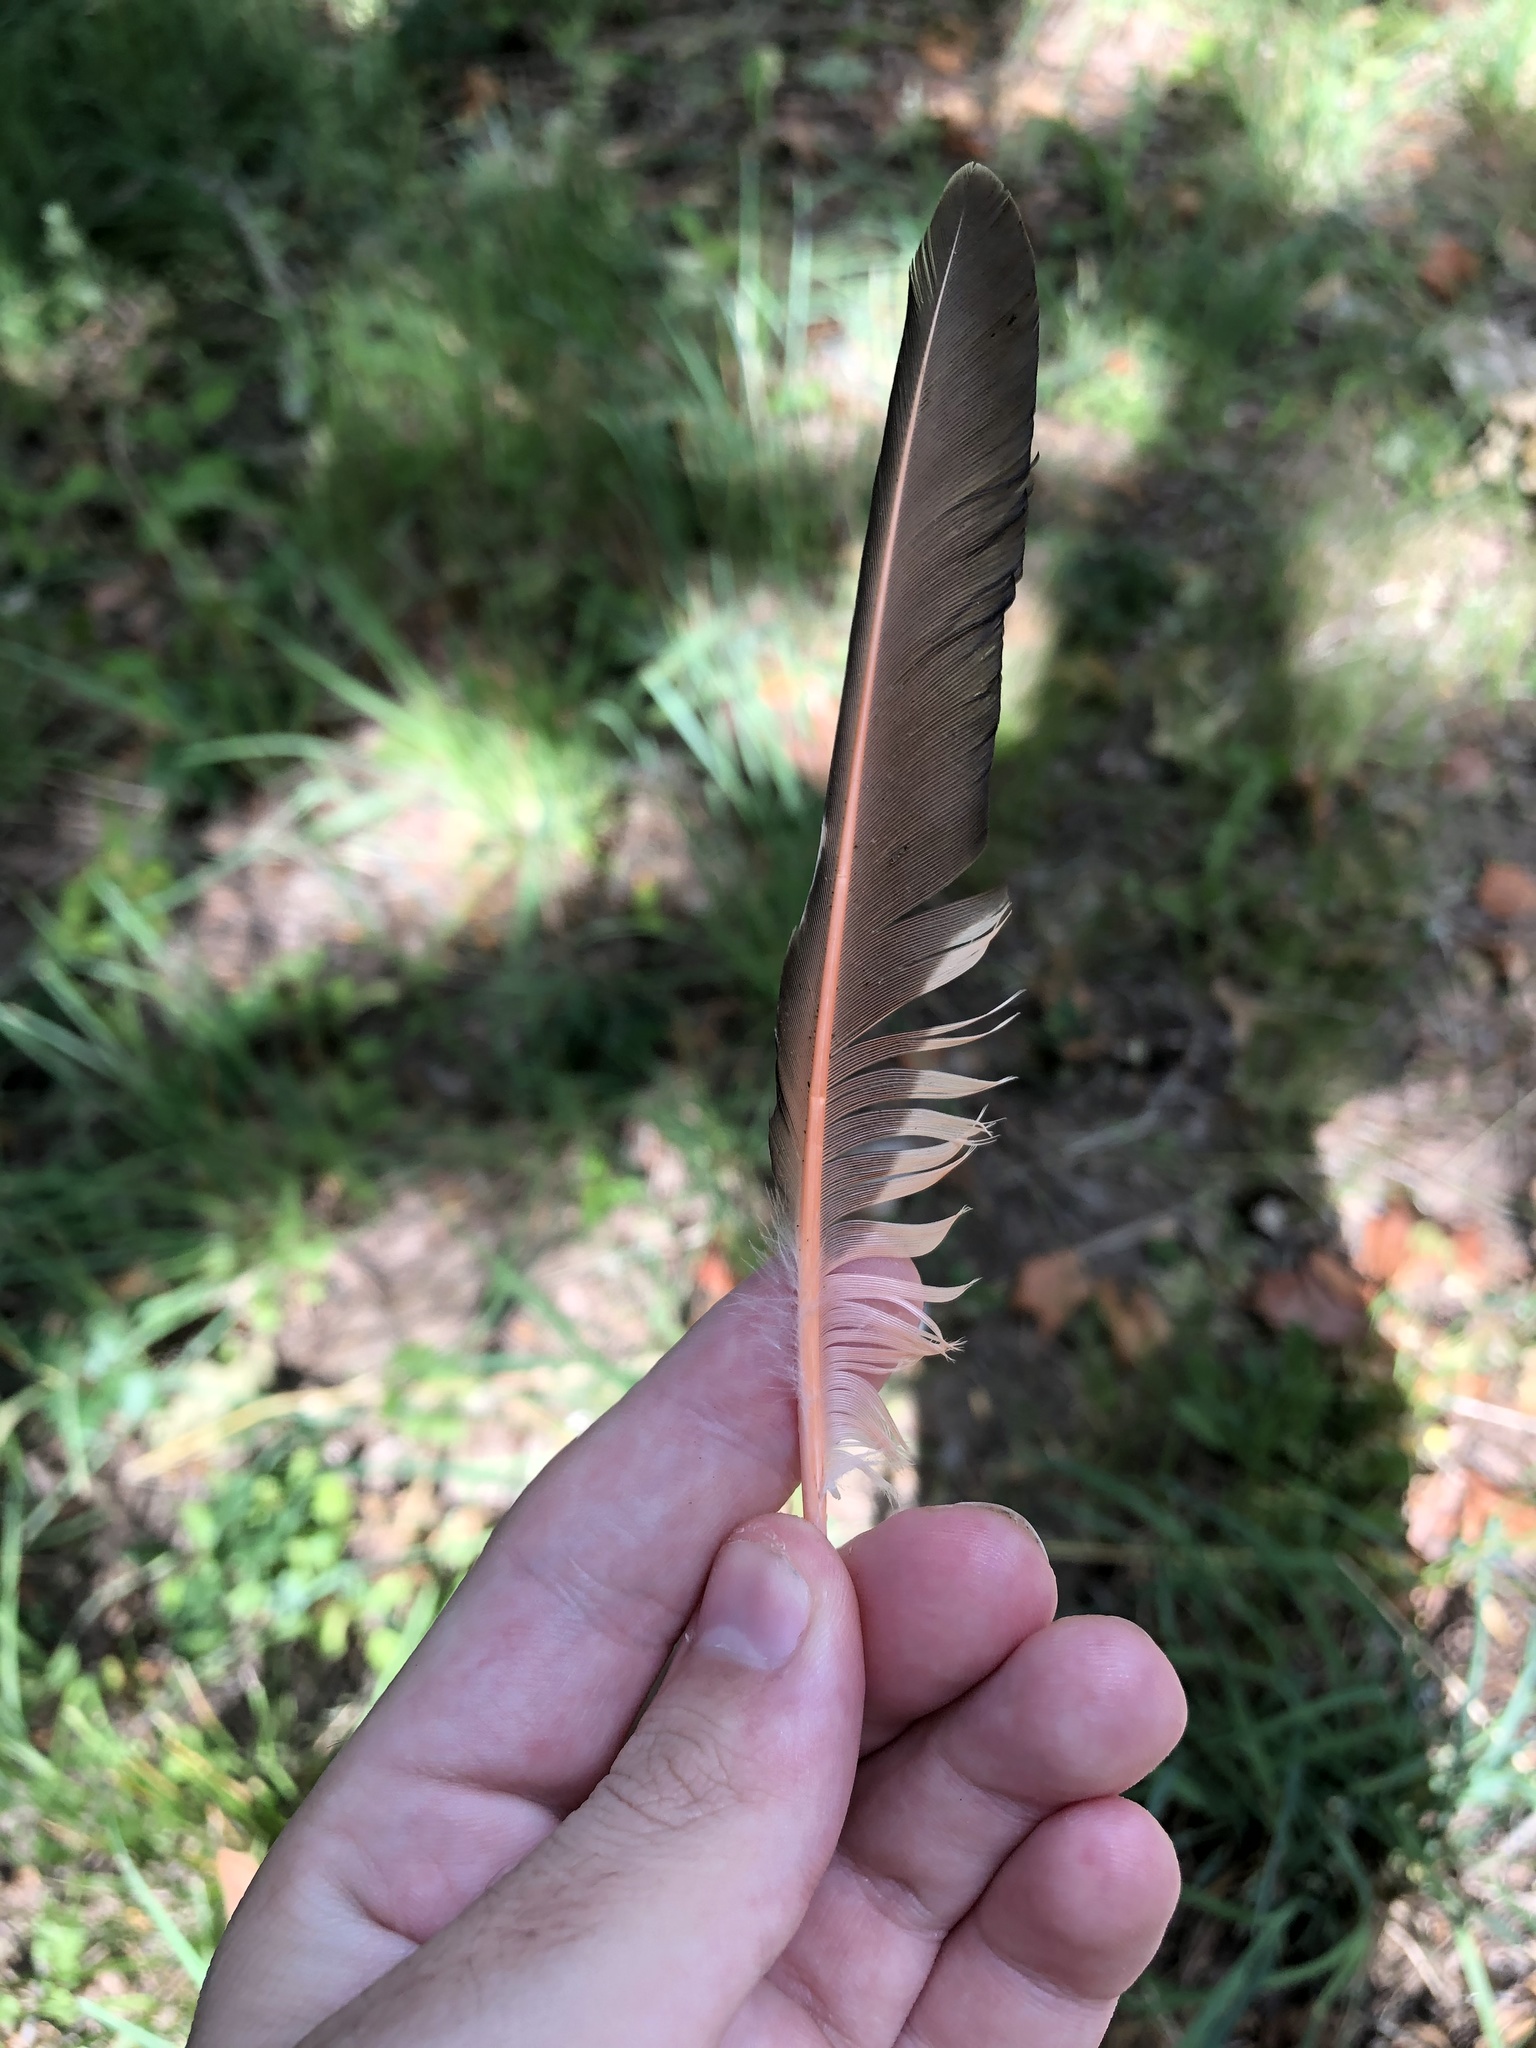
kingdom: Animalia
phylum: Chordata
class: Aves
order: Piciformes
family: Picidae
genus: Colaptes
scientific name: Colaptes auratus
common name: Northern flicker
